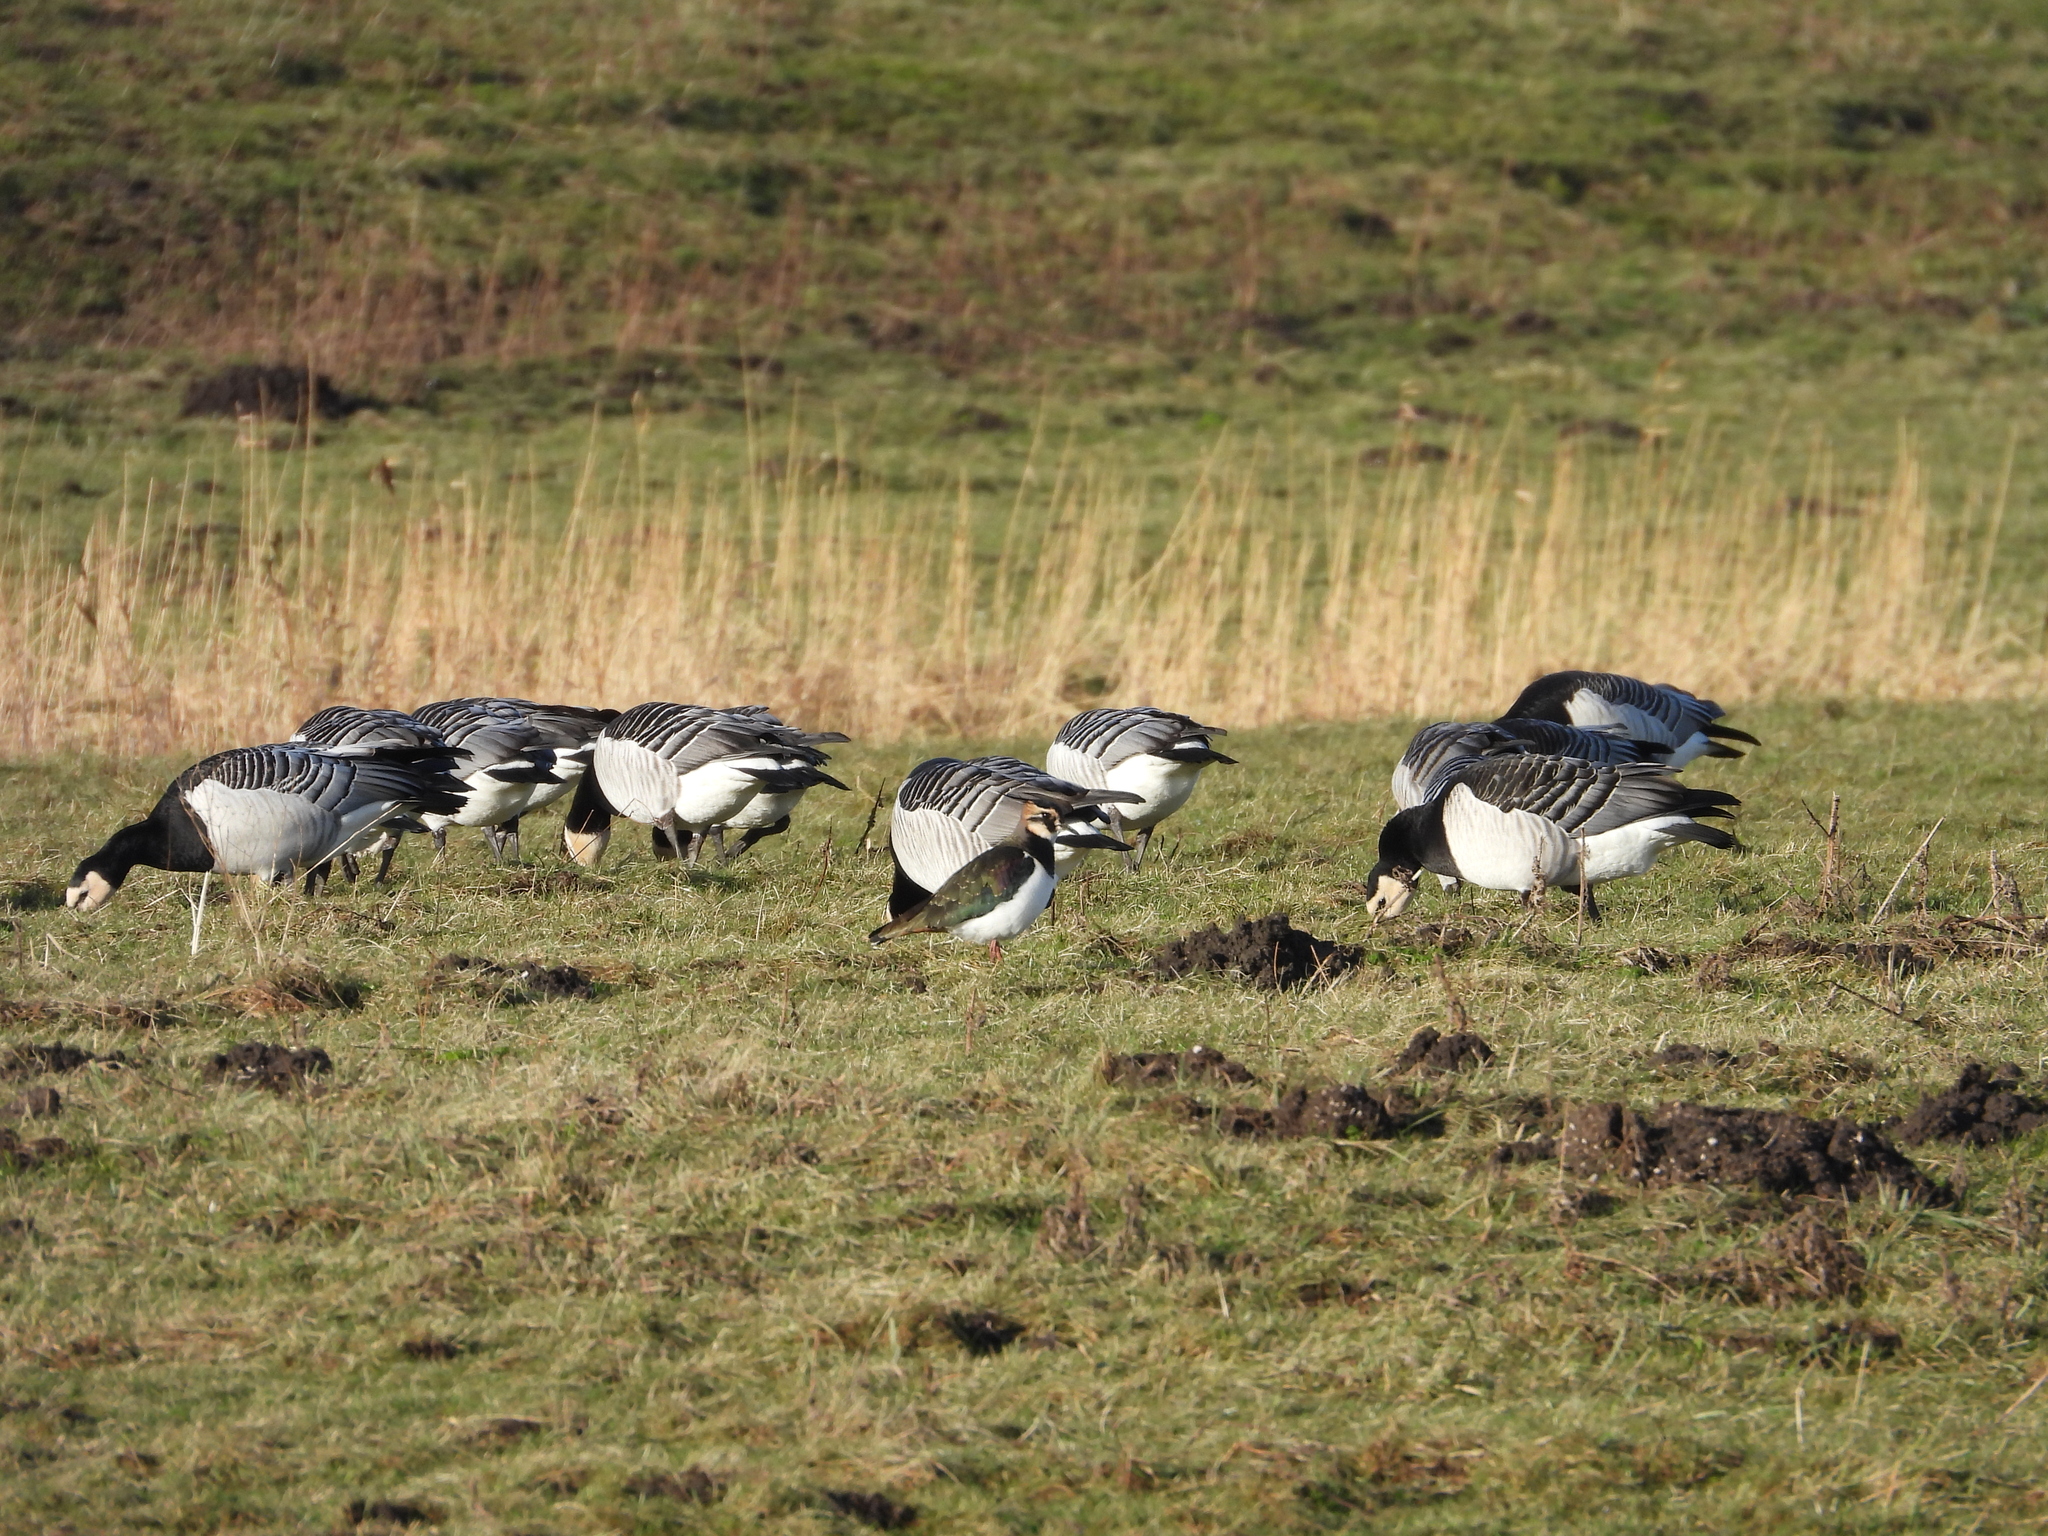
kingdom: Animalia
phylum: Chordata
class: Aves
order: Charadriiformes
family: Charadriidae
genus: Vanellus
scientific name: Vanellus vanellus
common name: Northern lapwing
